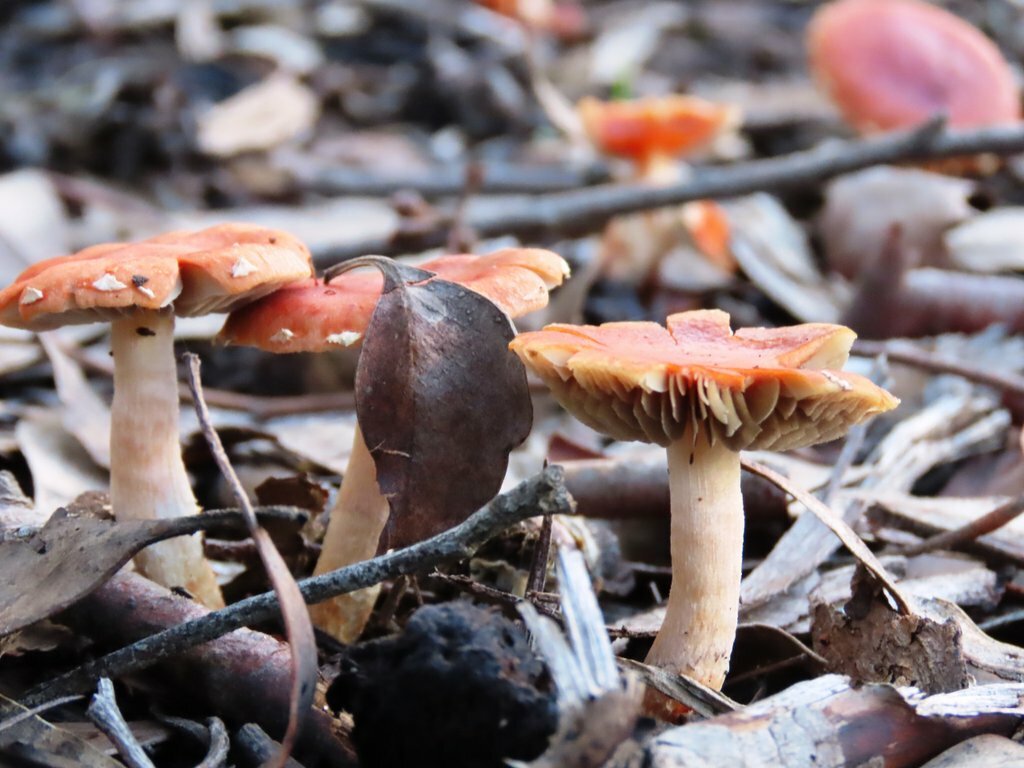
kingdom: Fungi
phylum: Basidiomycota
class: Agaricomycetes
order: Agaricales
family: Strophariaceae
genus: Leratiomyces
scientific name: Leratiomyces ceres
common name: Redlead roundhead
